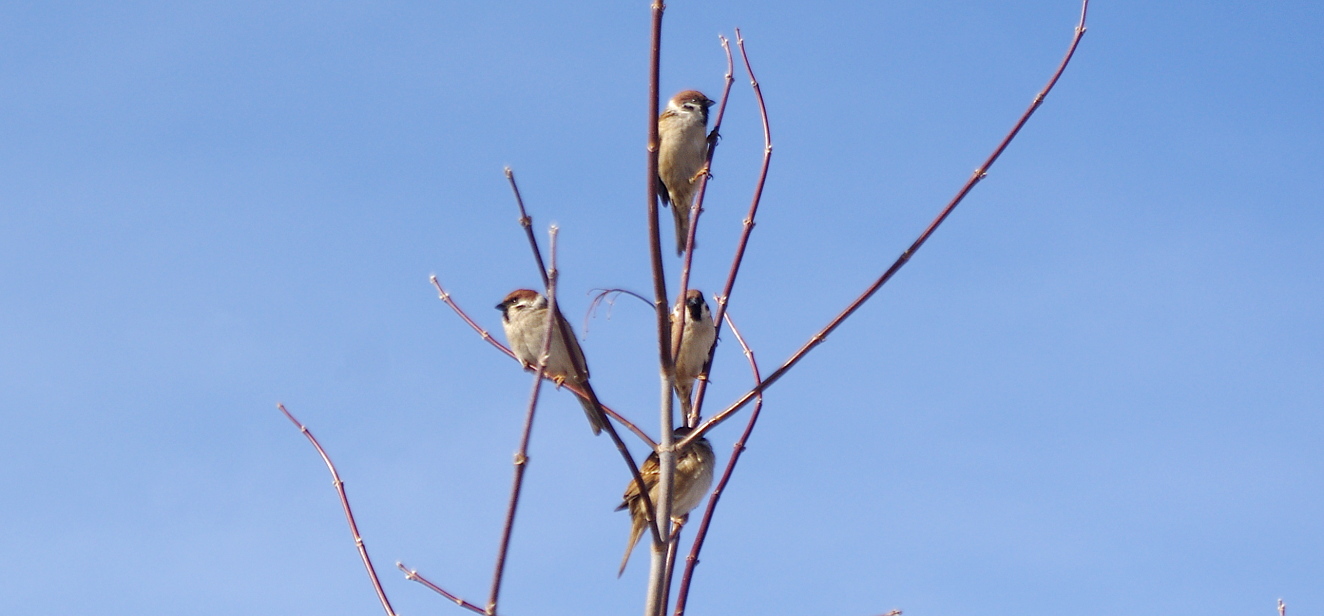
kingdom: Animalia
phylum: Chordata
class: Aves
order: Passeriformes
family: Passeridae
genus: Passer
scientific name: Passer montanus
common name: Eurasian tree sparrow
